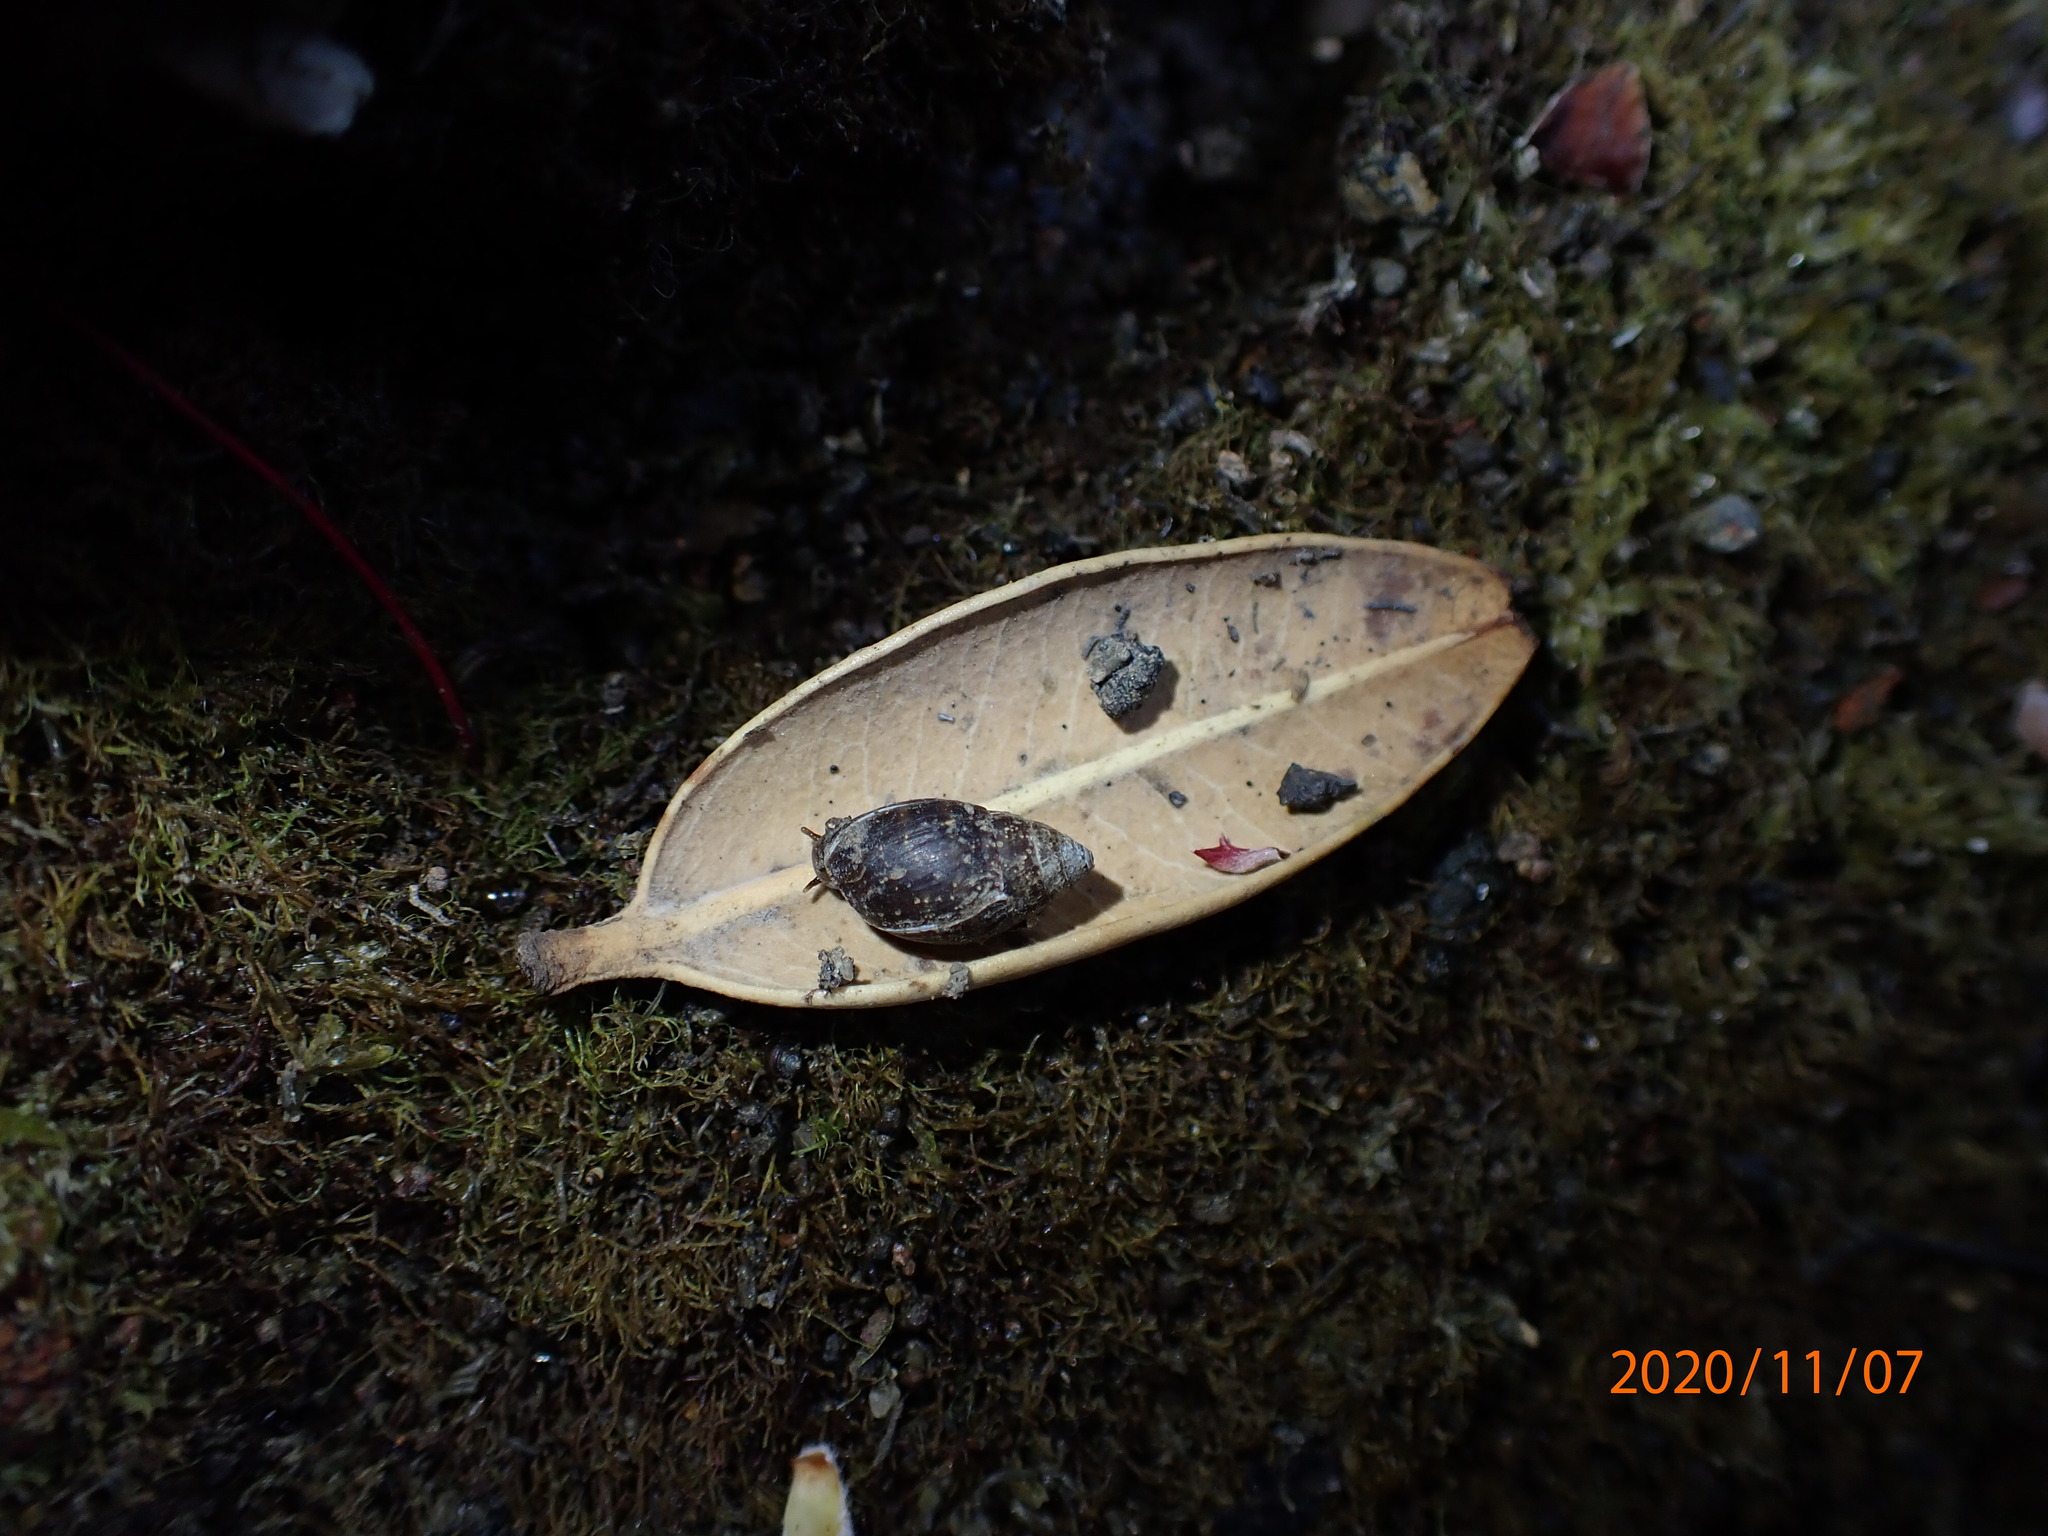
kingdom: Animalia
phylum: Mollusca
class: Gastropoda
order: Ellobiida
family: Ellobiidae
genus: Pleuroloba
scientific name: Pleuroloba costellaris
